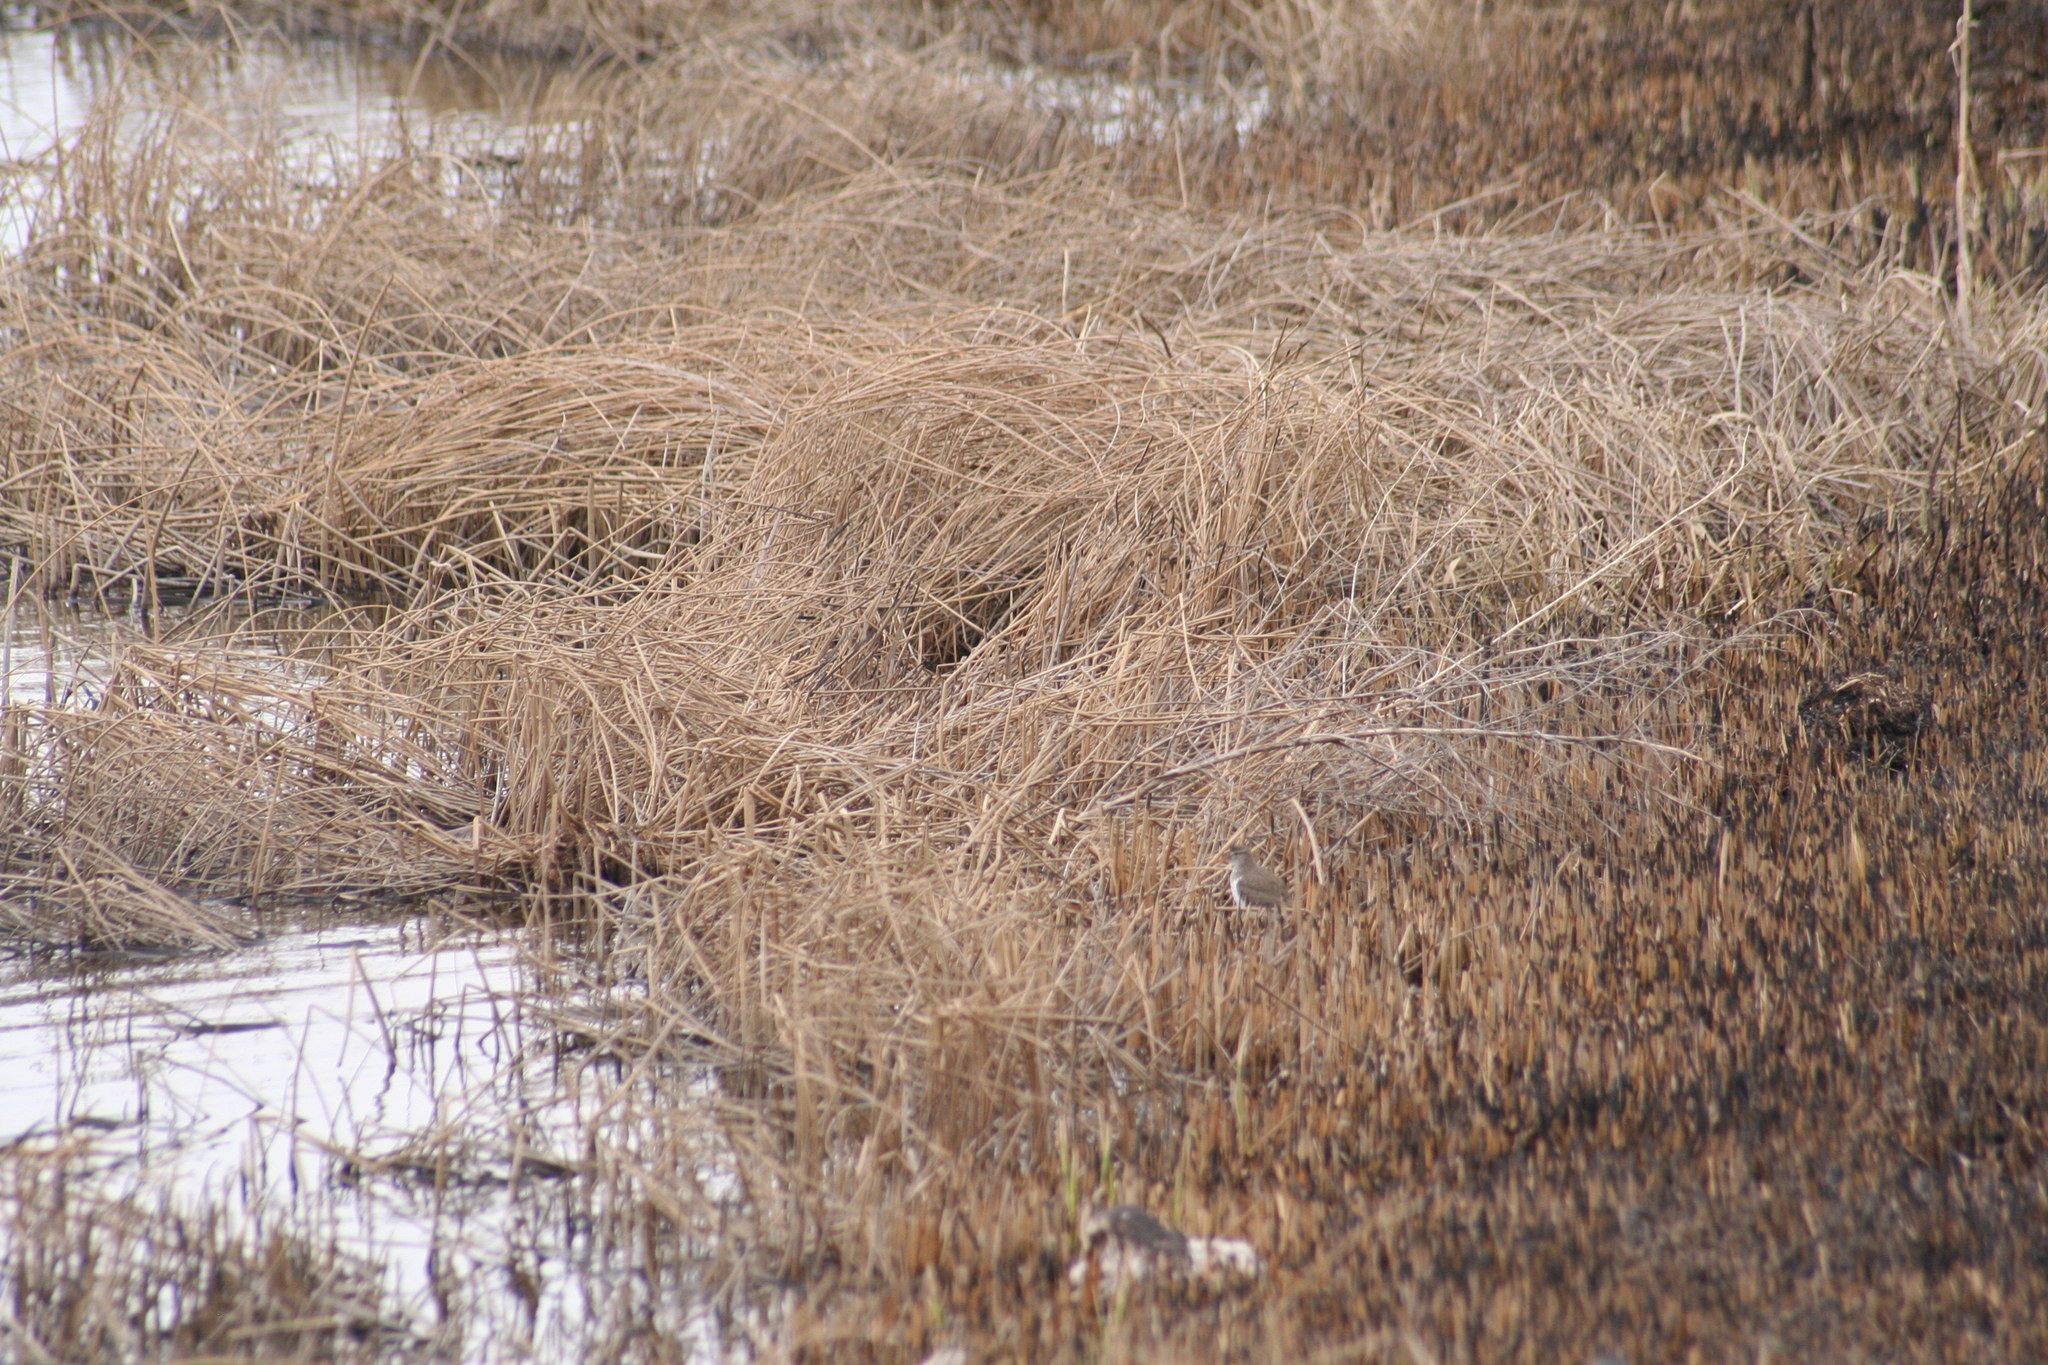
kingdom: Animalia
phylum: Chordata
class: Aves
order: Charadriiformes
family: Scolopacidae
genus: Actitis
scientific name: Actitis macularius
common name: Spotted sandpiper
